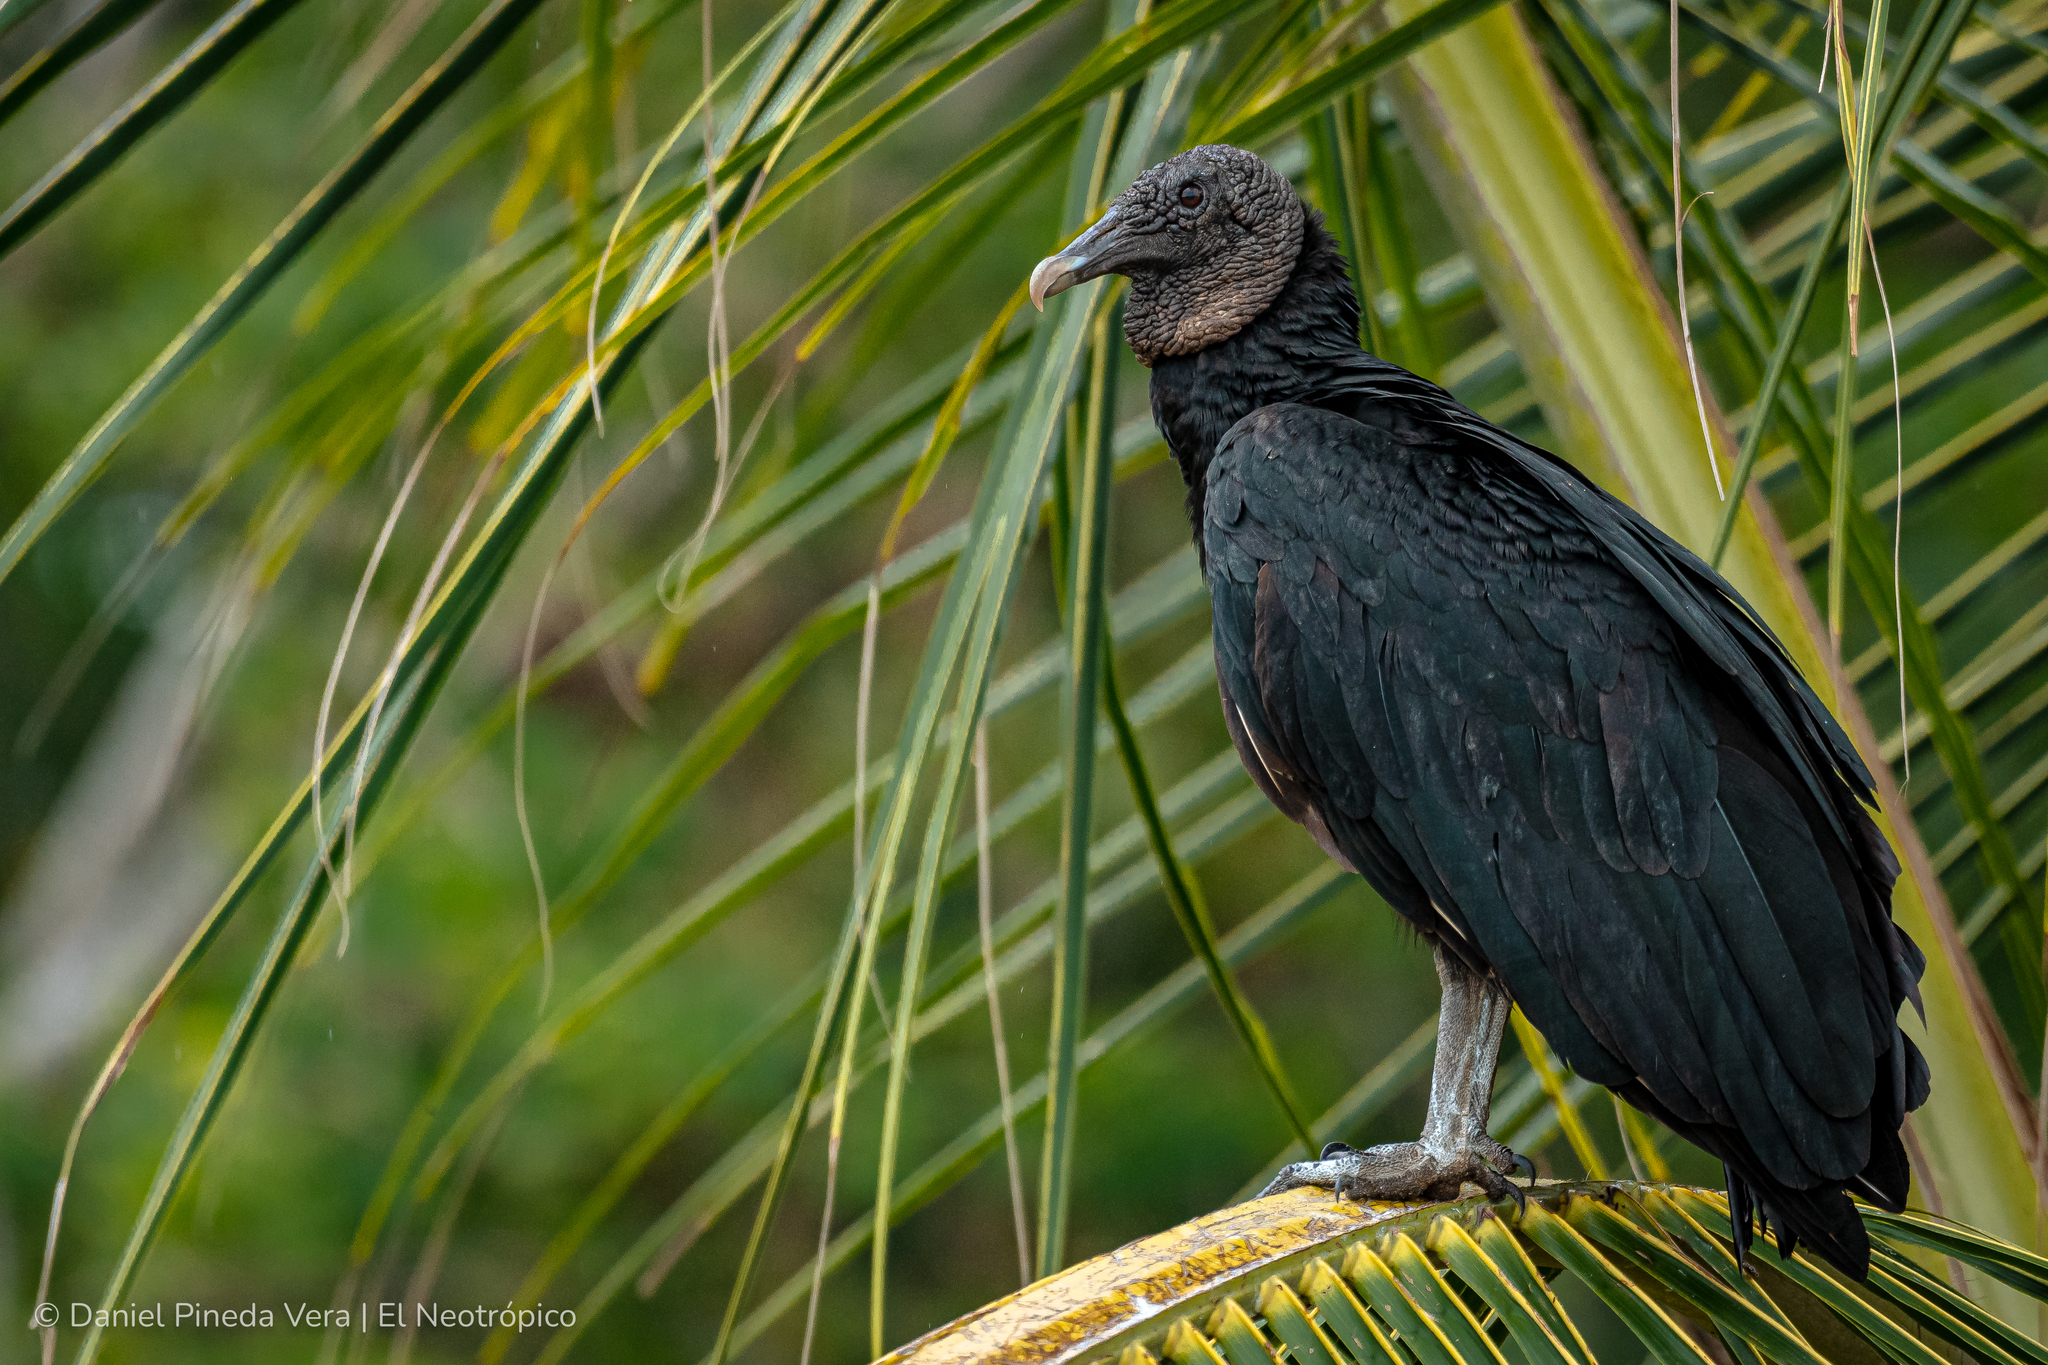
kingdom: Animalia
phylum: Chordata
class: Aves
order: Accipitriformes
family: Cathartidae
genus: Coragyps
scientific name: Coragyps atratus
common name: Black vulture
